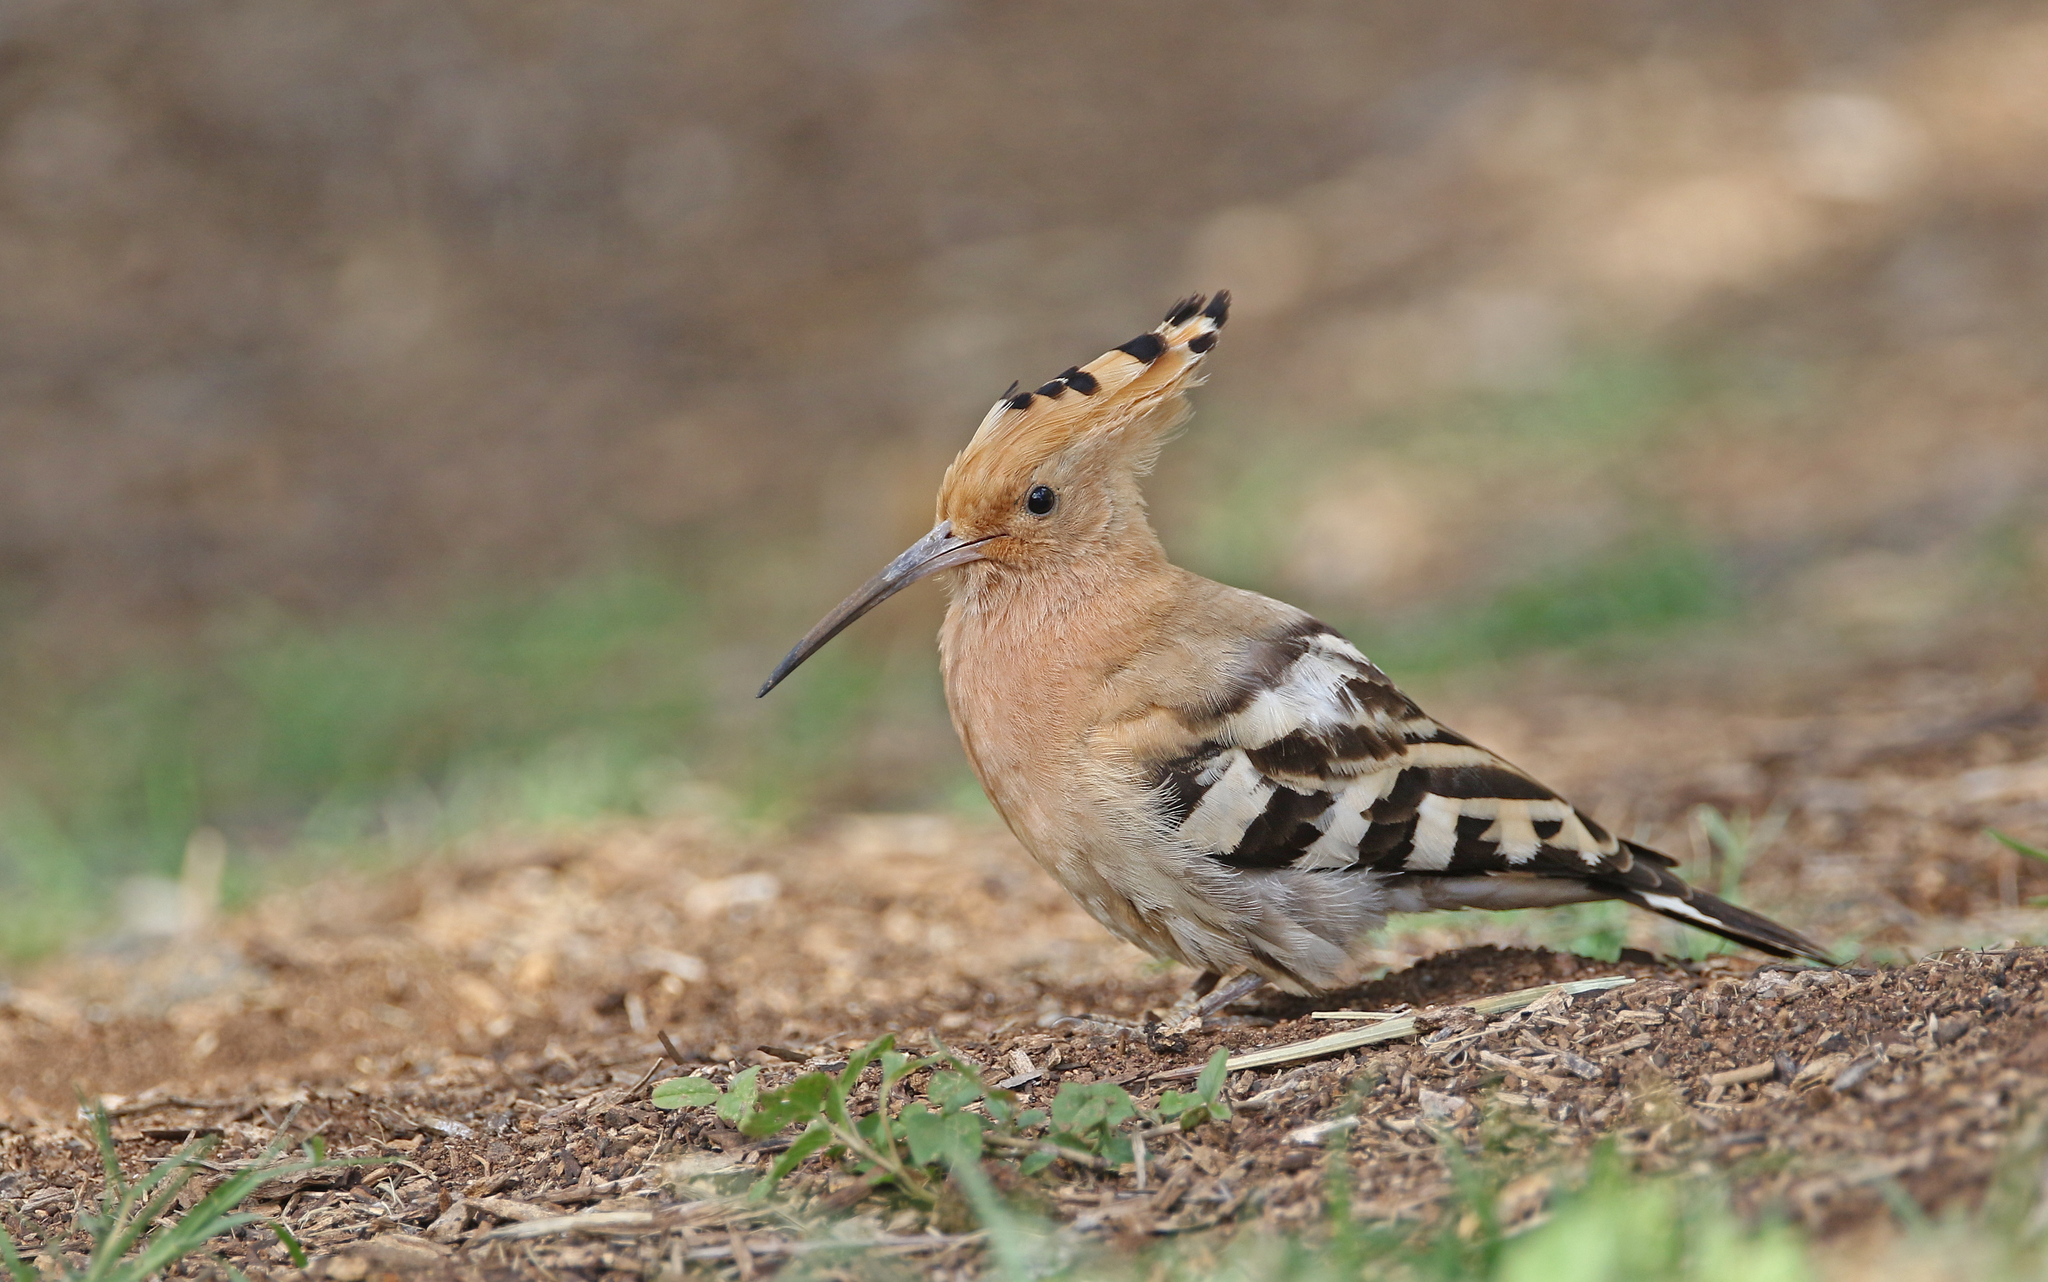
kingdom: Animalia
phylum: Chordata
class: Aves
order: Bucerotiformes
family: Upupidae
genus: Upupa
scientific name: Upupa epops
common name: Eurasian hoopoe
